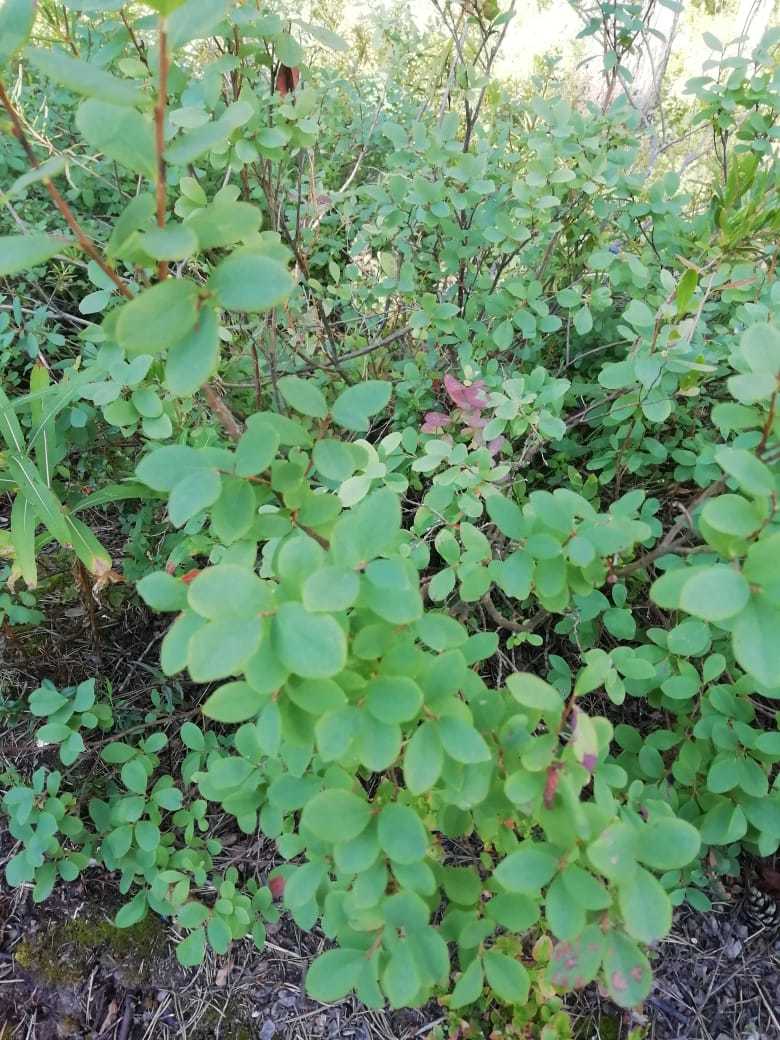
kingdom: Plantae
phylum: Tracheophyta
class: Magnoliopsida
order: Ericales
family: Ericaceae
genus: Vaccinium
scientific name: Vaccinium uliginosum
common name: Bog bilberry
